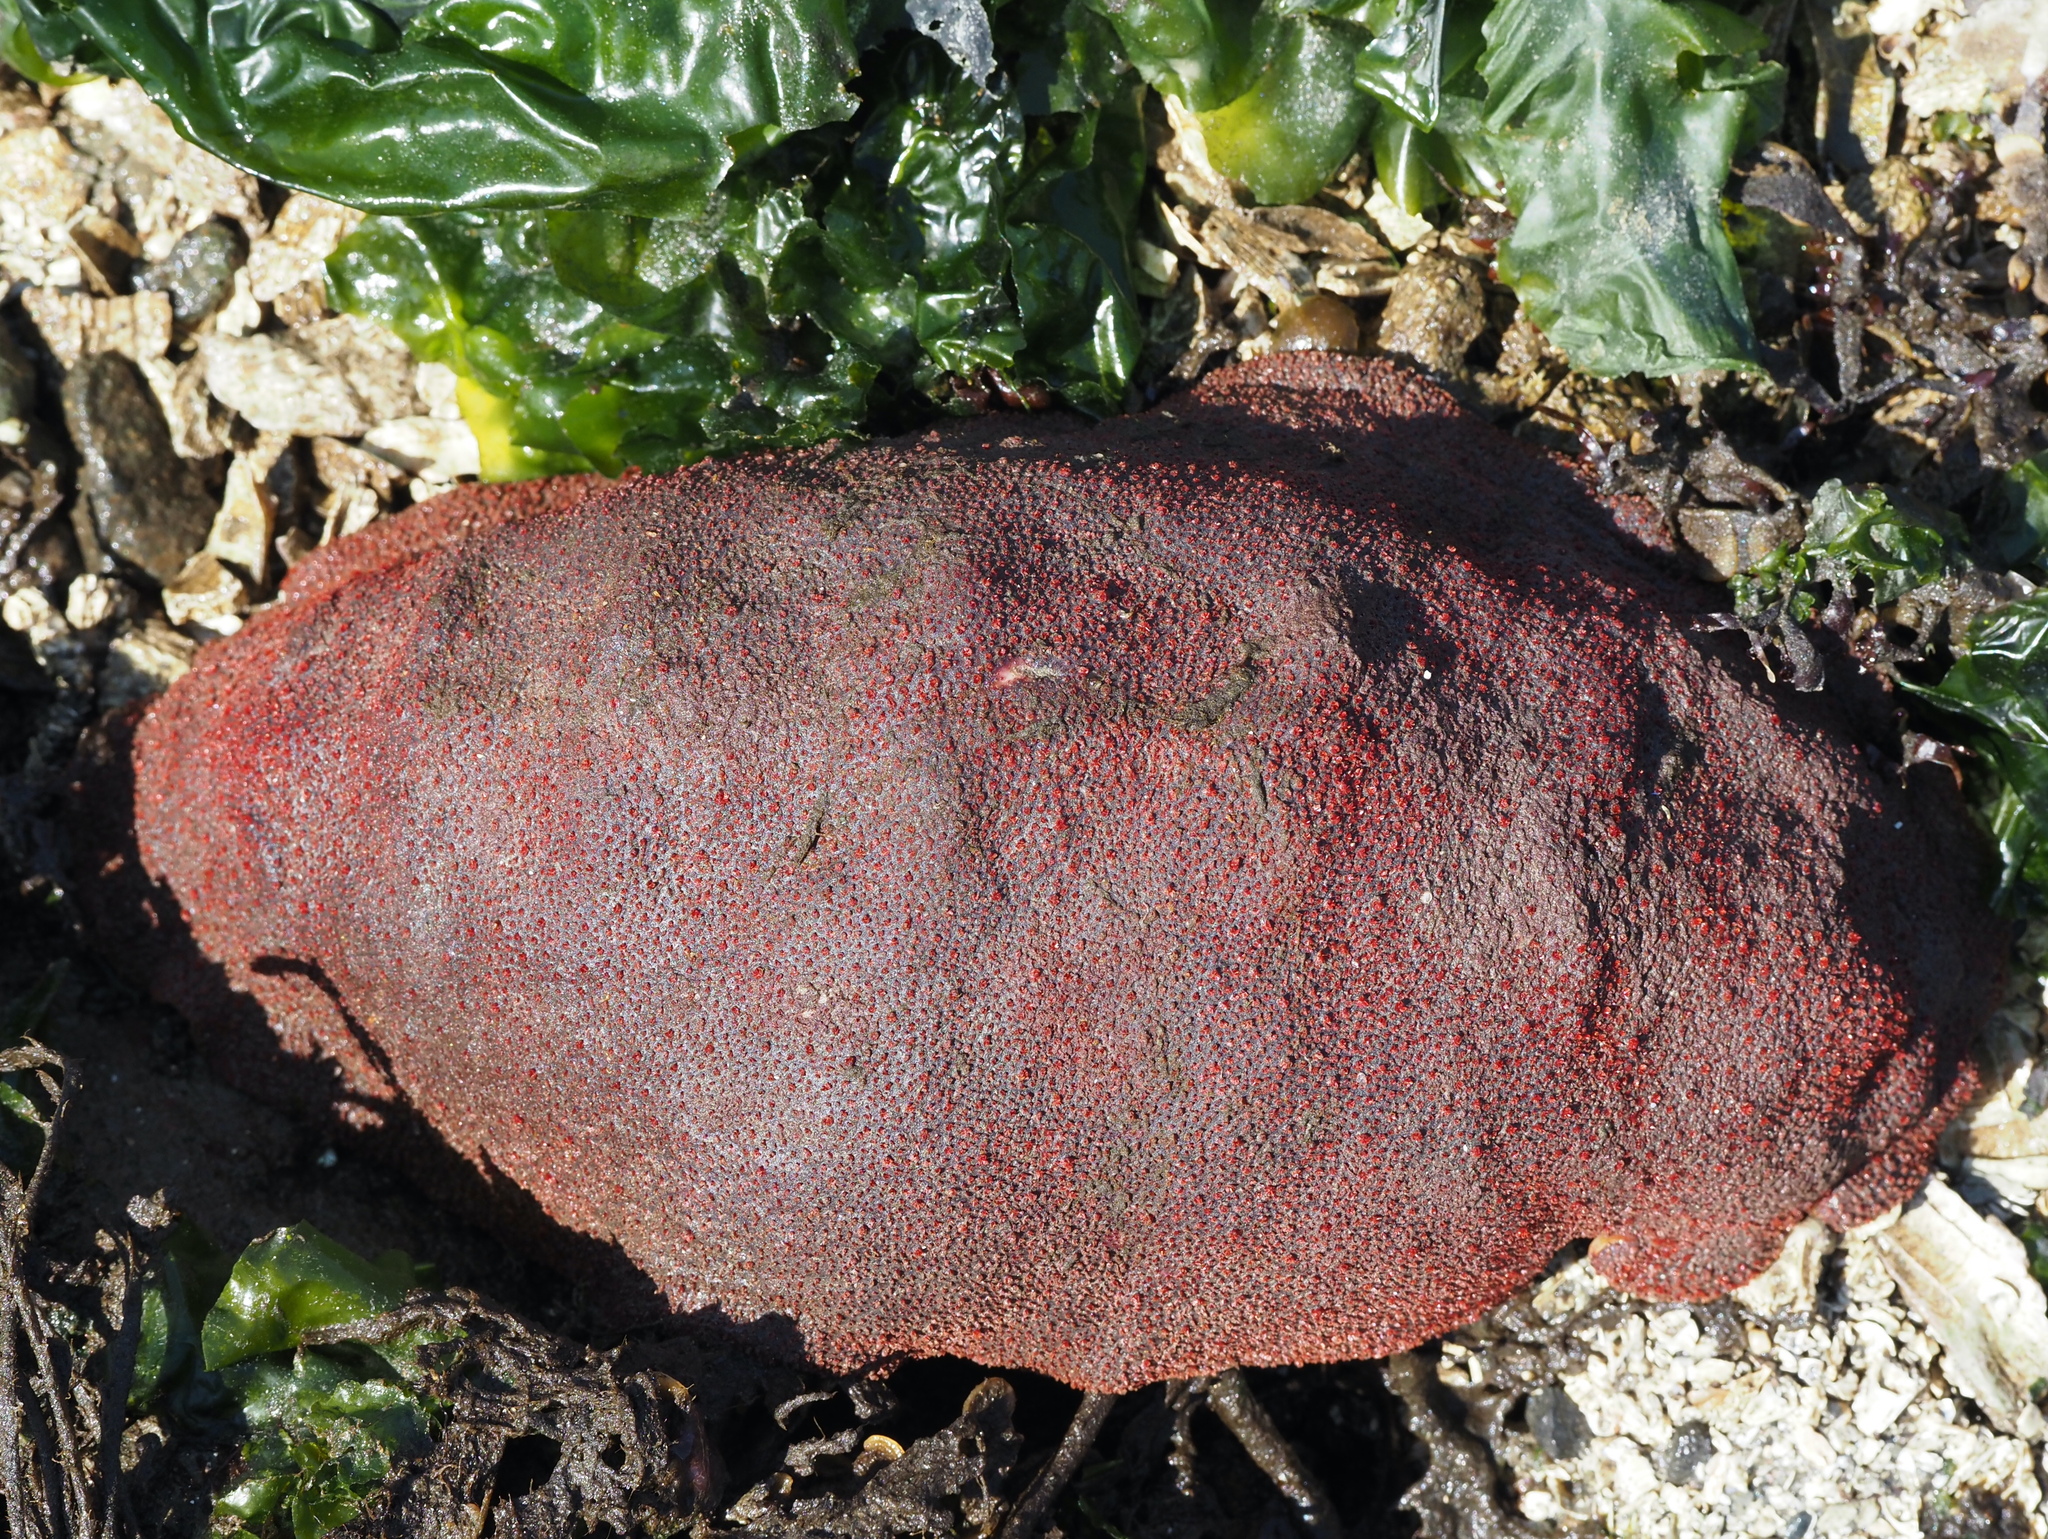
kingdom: Animalia
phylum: Mollusca
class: Polyplacophora
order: Chitonida
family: Acanthochitonidae
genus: Cryptochiton
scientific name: Cryptochiton stelleri
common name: Giant pacific chiton
